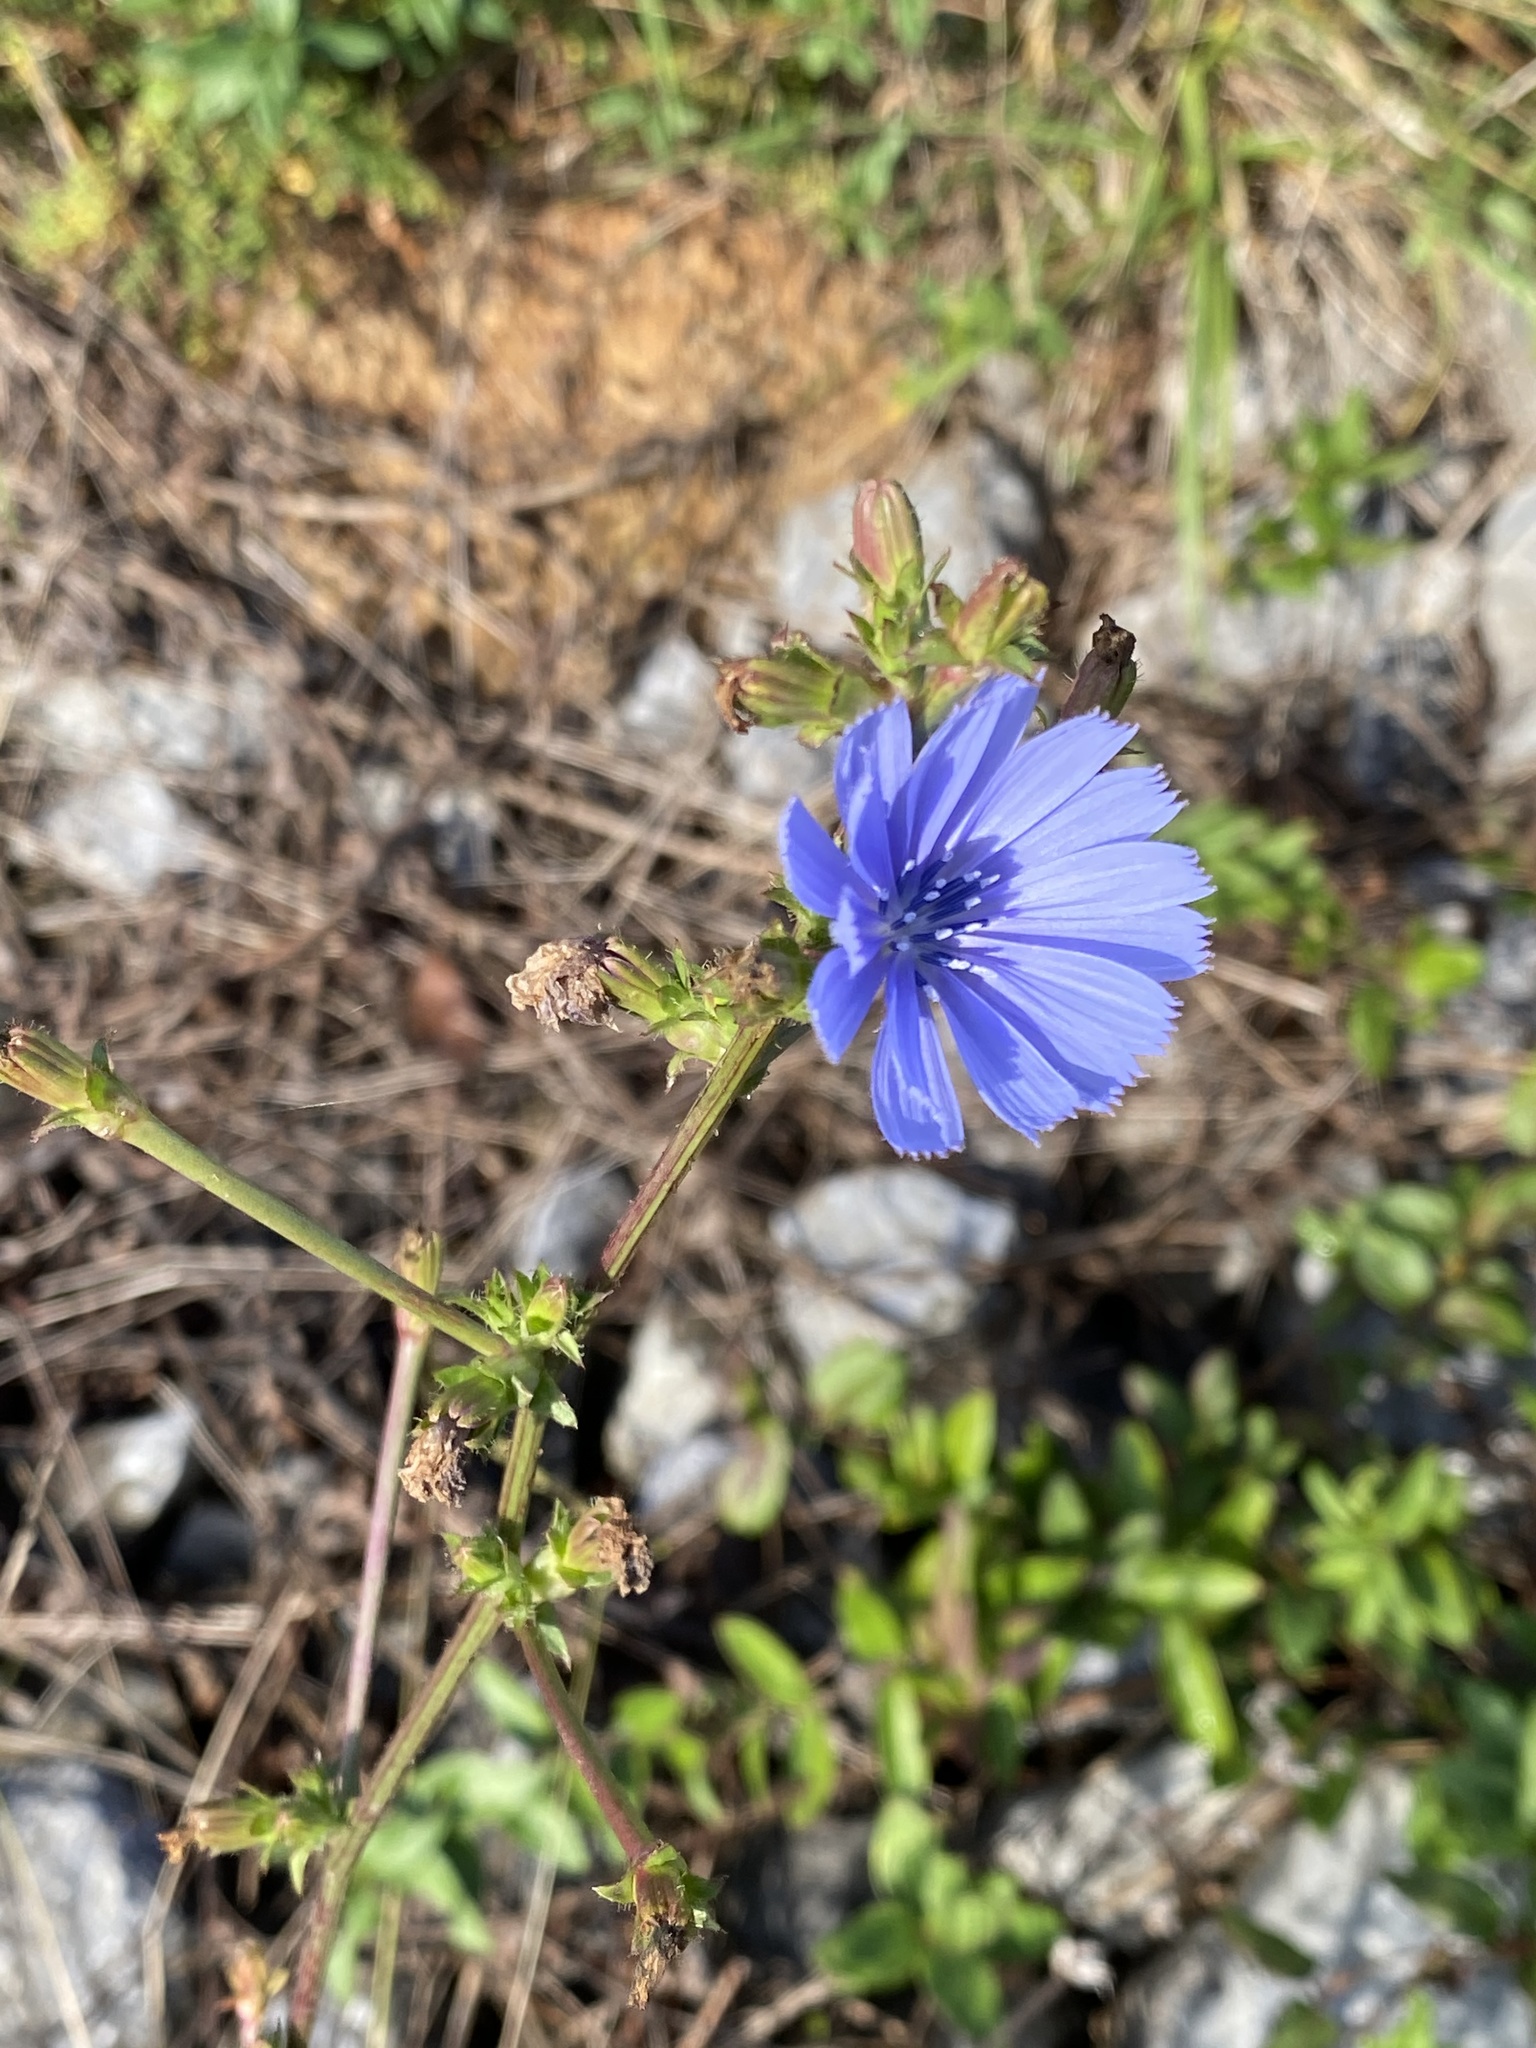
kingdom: Plantae
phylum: Tracheophyta
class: Magnoliopsida
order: Asterales
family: Asteraceae
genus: Cichorium
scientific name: Cichorium intybus
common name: Chicory
